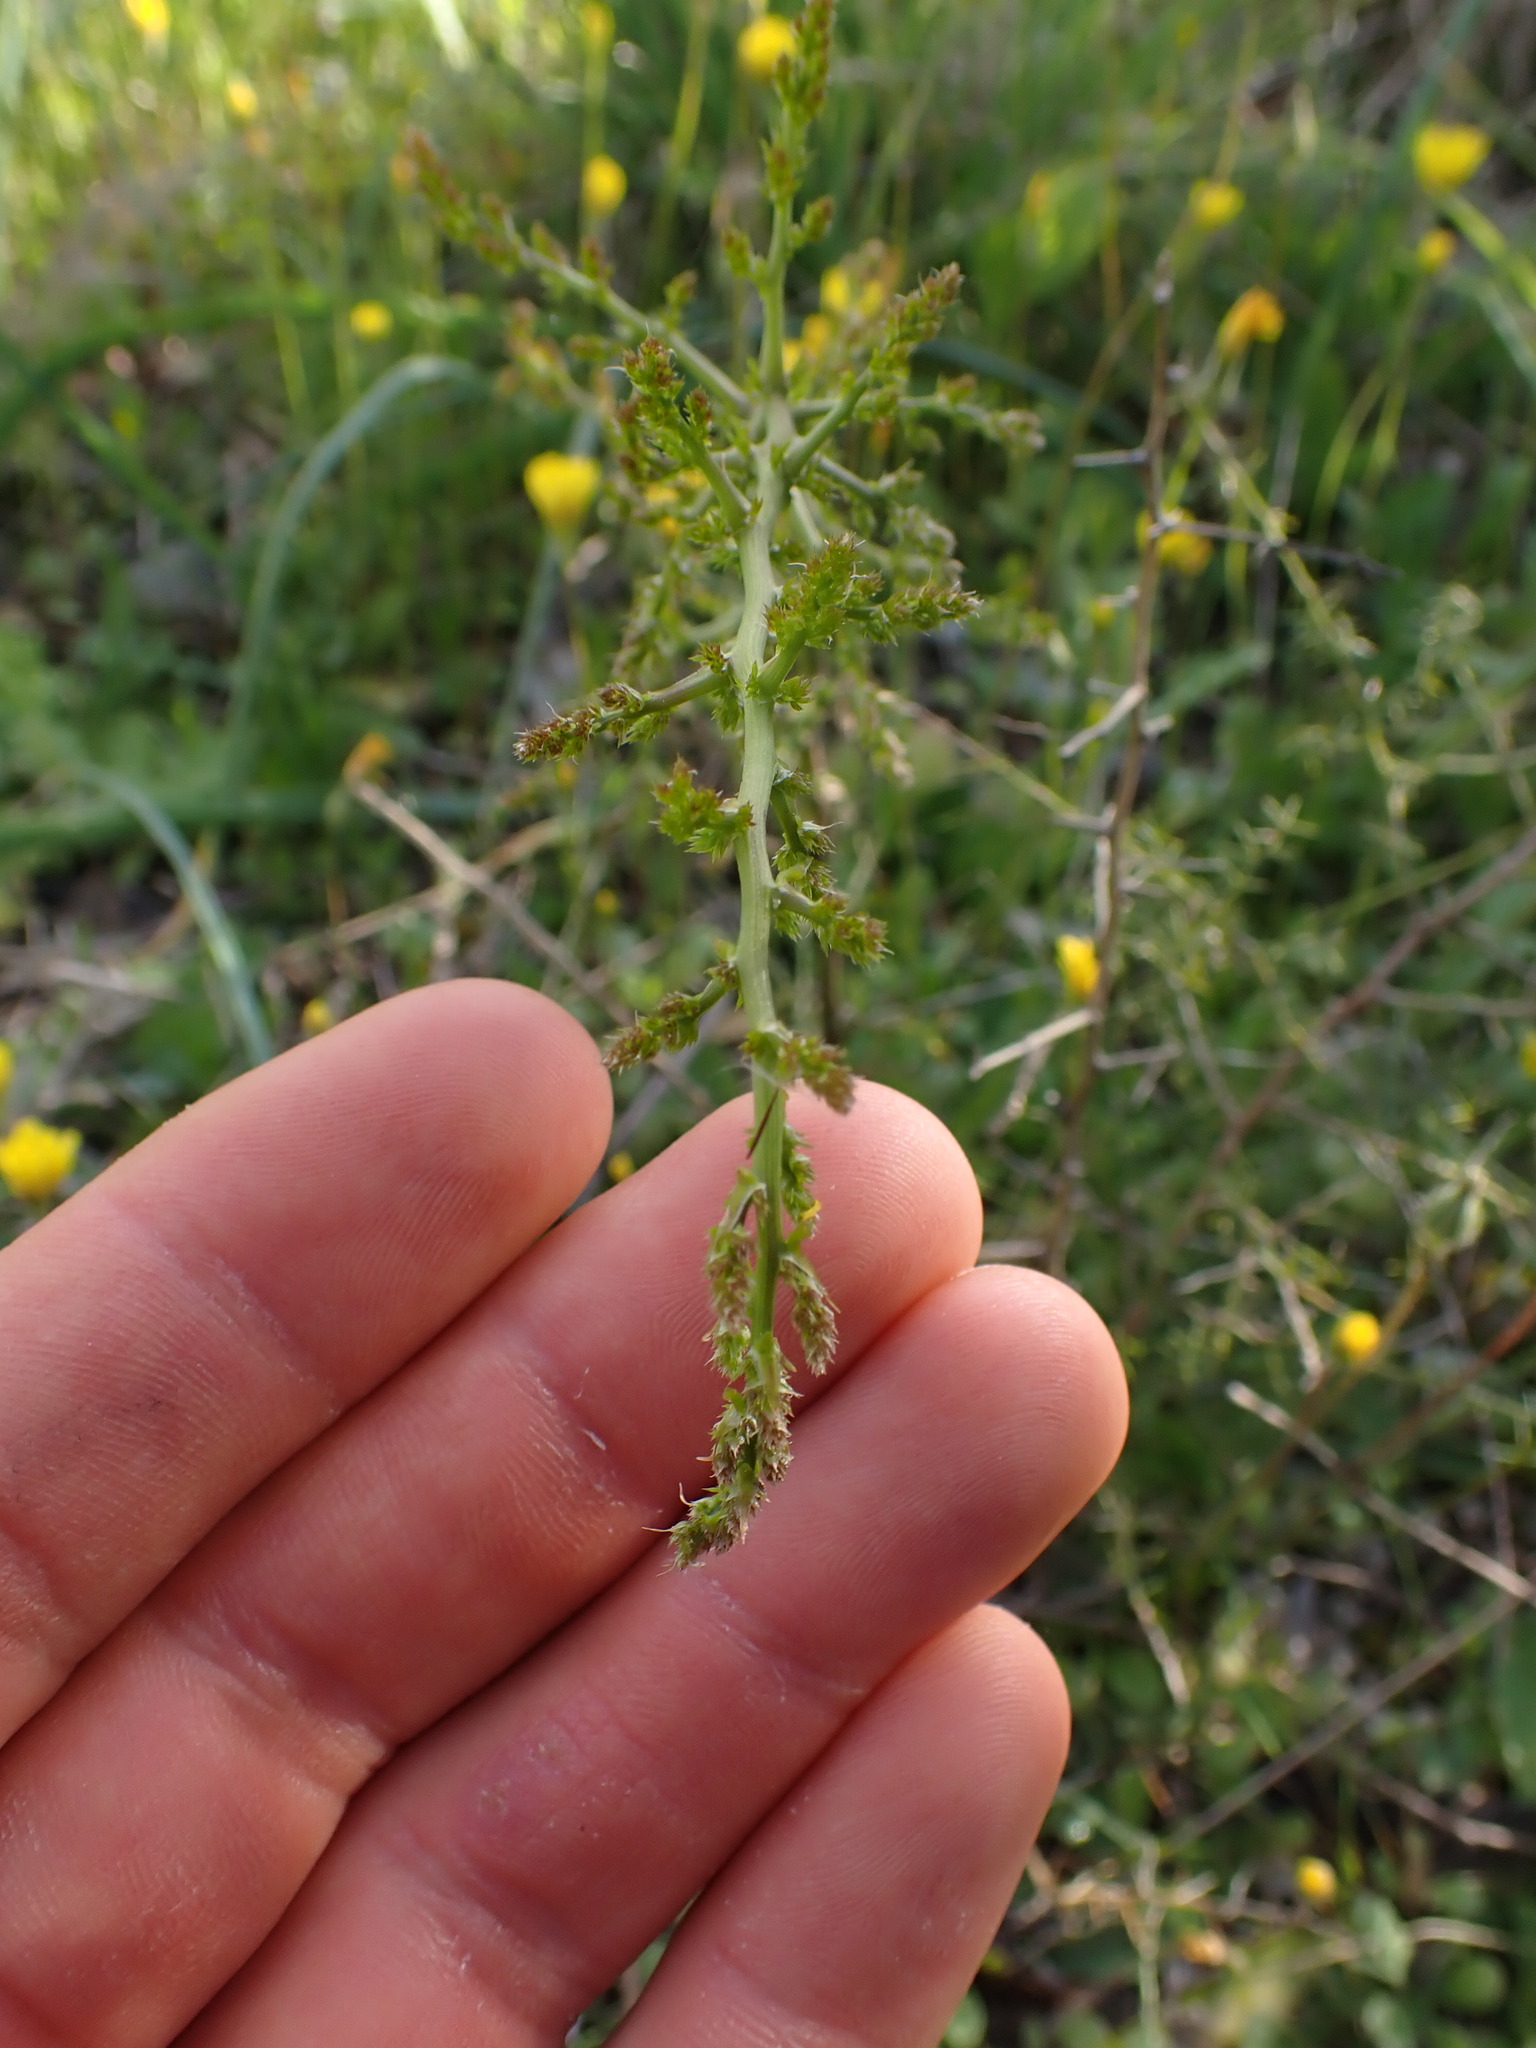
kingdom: Plantae
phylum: Tracheophyta
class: Liliopsida
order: Asparagales
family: Asparagaceae
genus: Asparagus
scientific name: Asparagus acutifolius
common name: Wild asparagus
